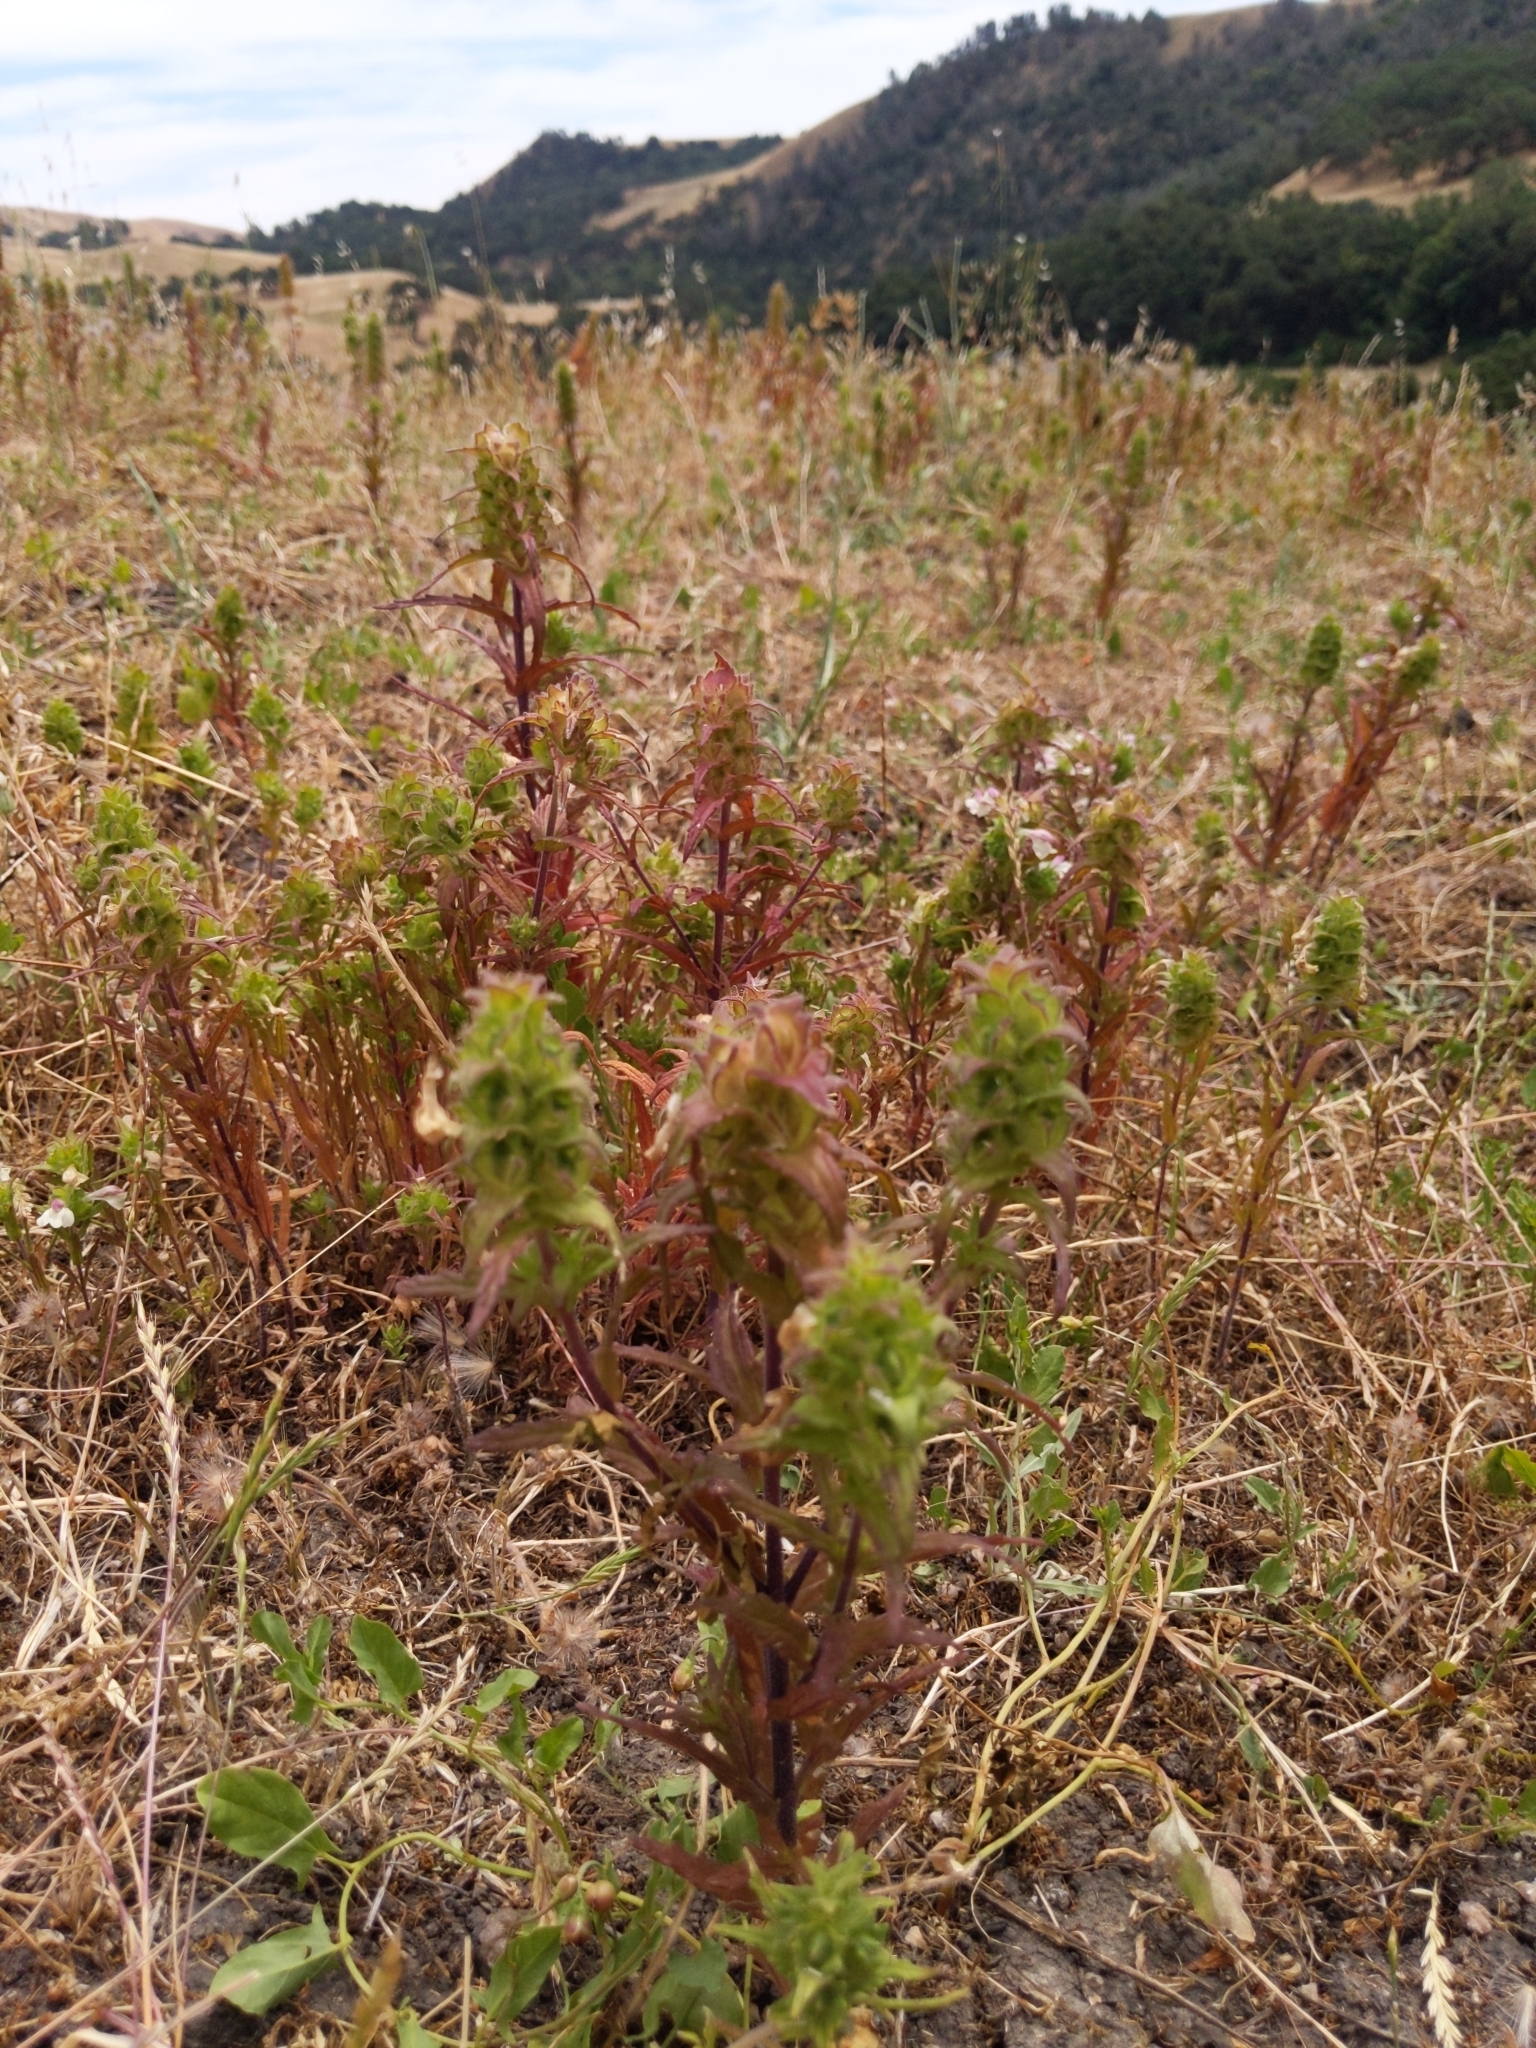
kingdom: Plantae
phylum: Tracheophyta
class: Magnoliopsida
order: Lamiales
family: Orobanchaceae
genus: Bellardia
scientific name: Bellardia trixago
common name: Mediterranean lineseed
